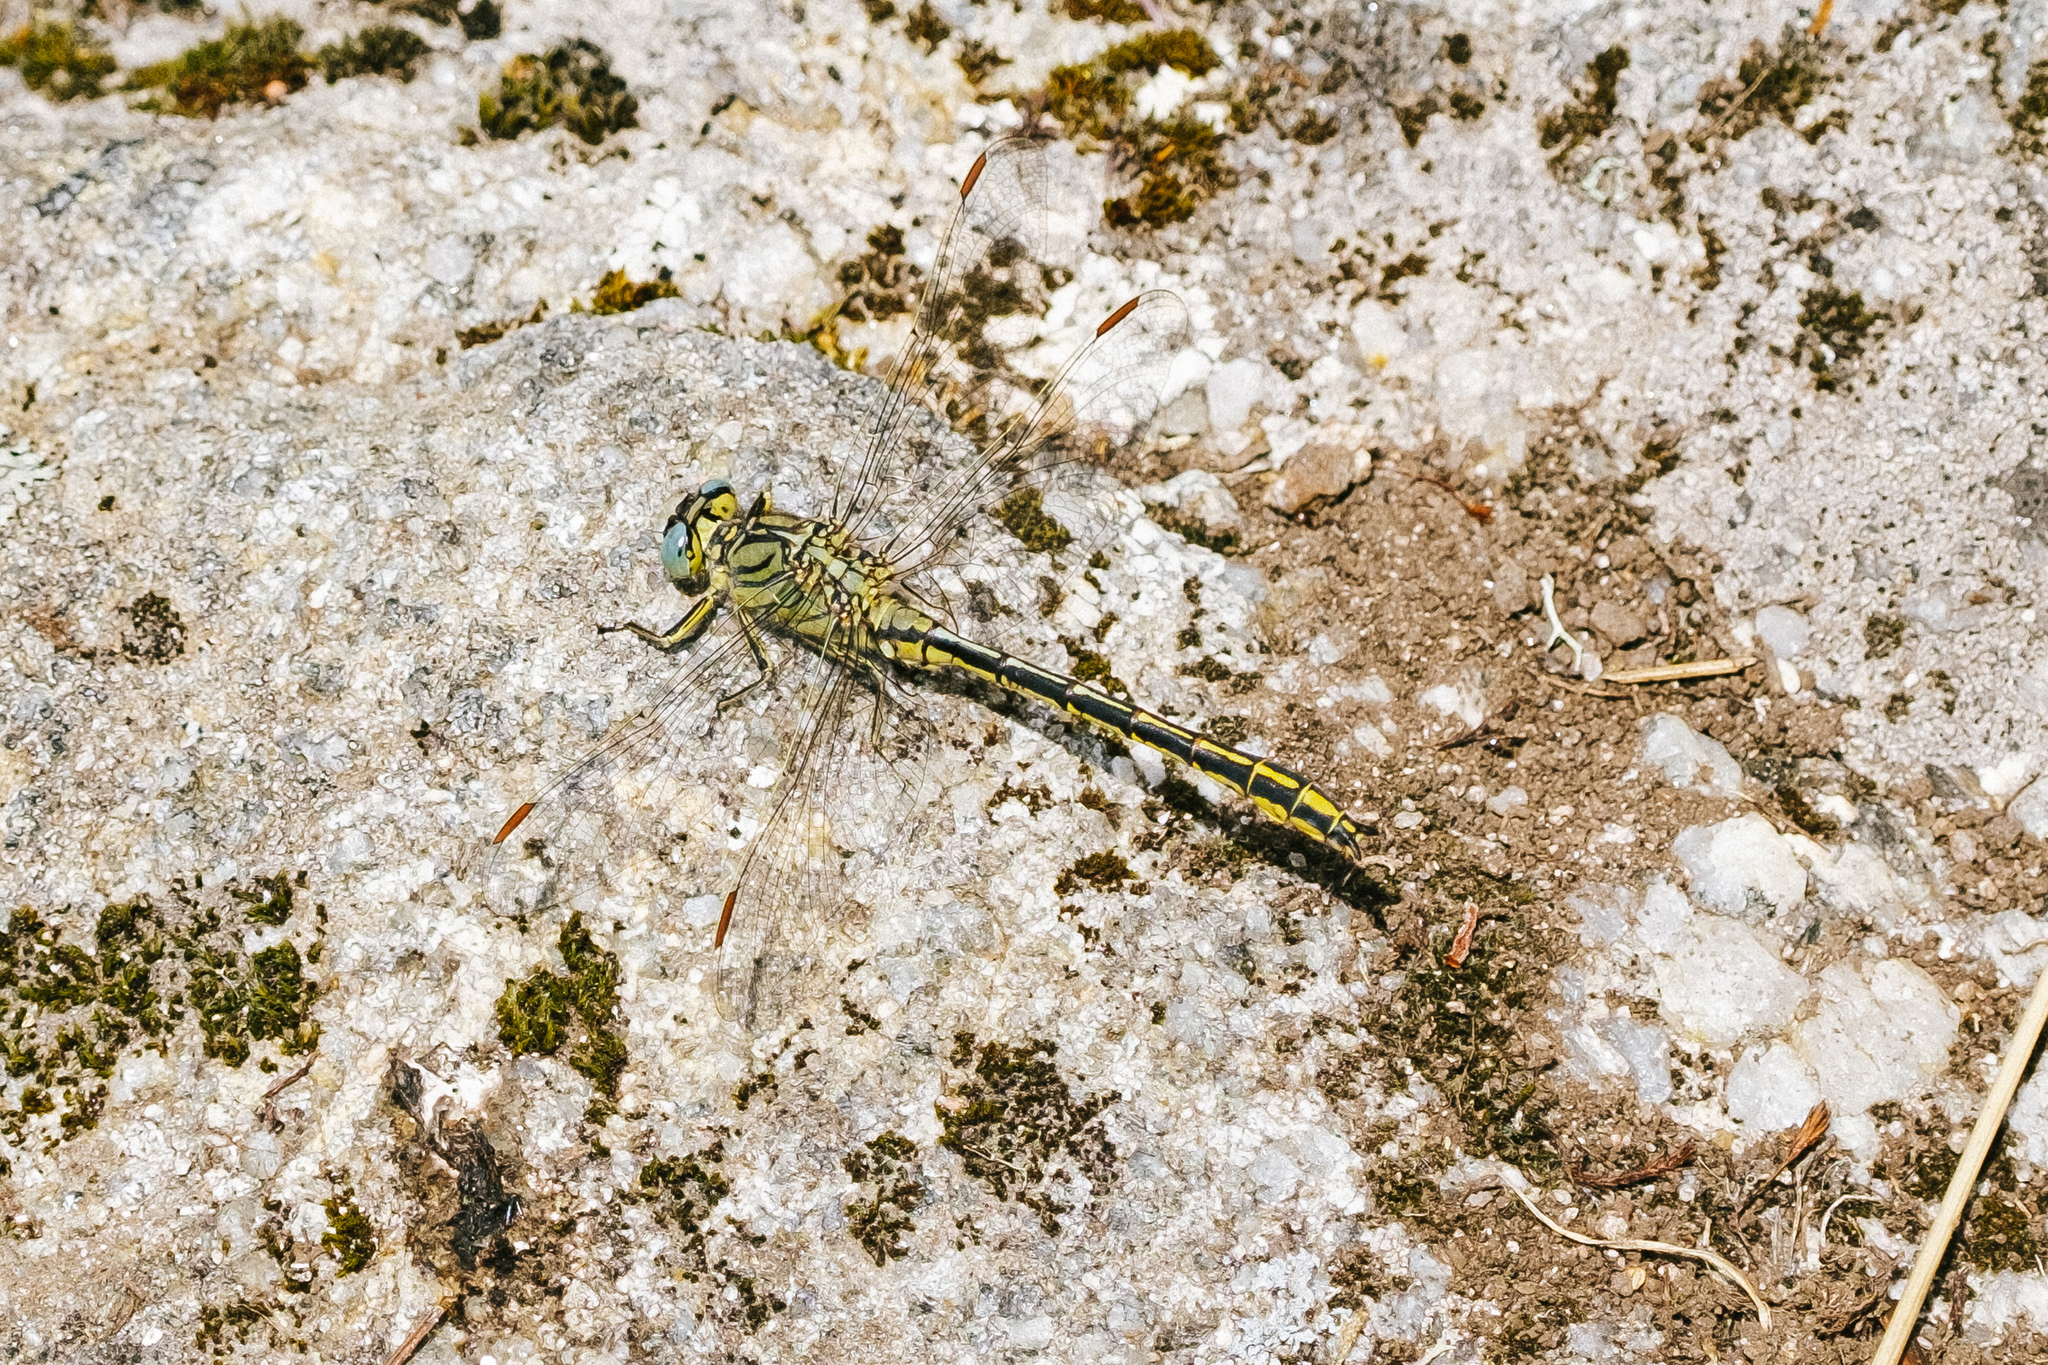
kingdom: Animalia
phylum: Arthropoda
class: Insecta
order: Odonata
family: Gomphidae
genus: Gomphus
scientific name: Gomphus pulchellus
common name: Western clubtail
